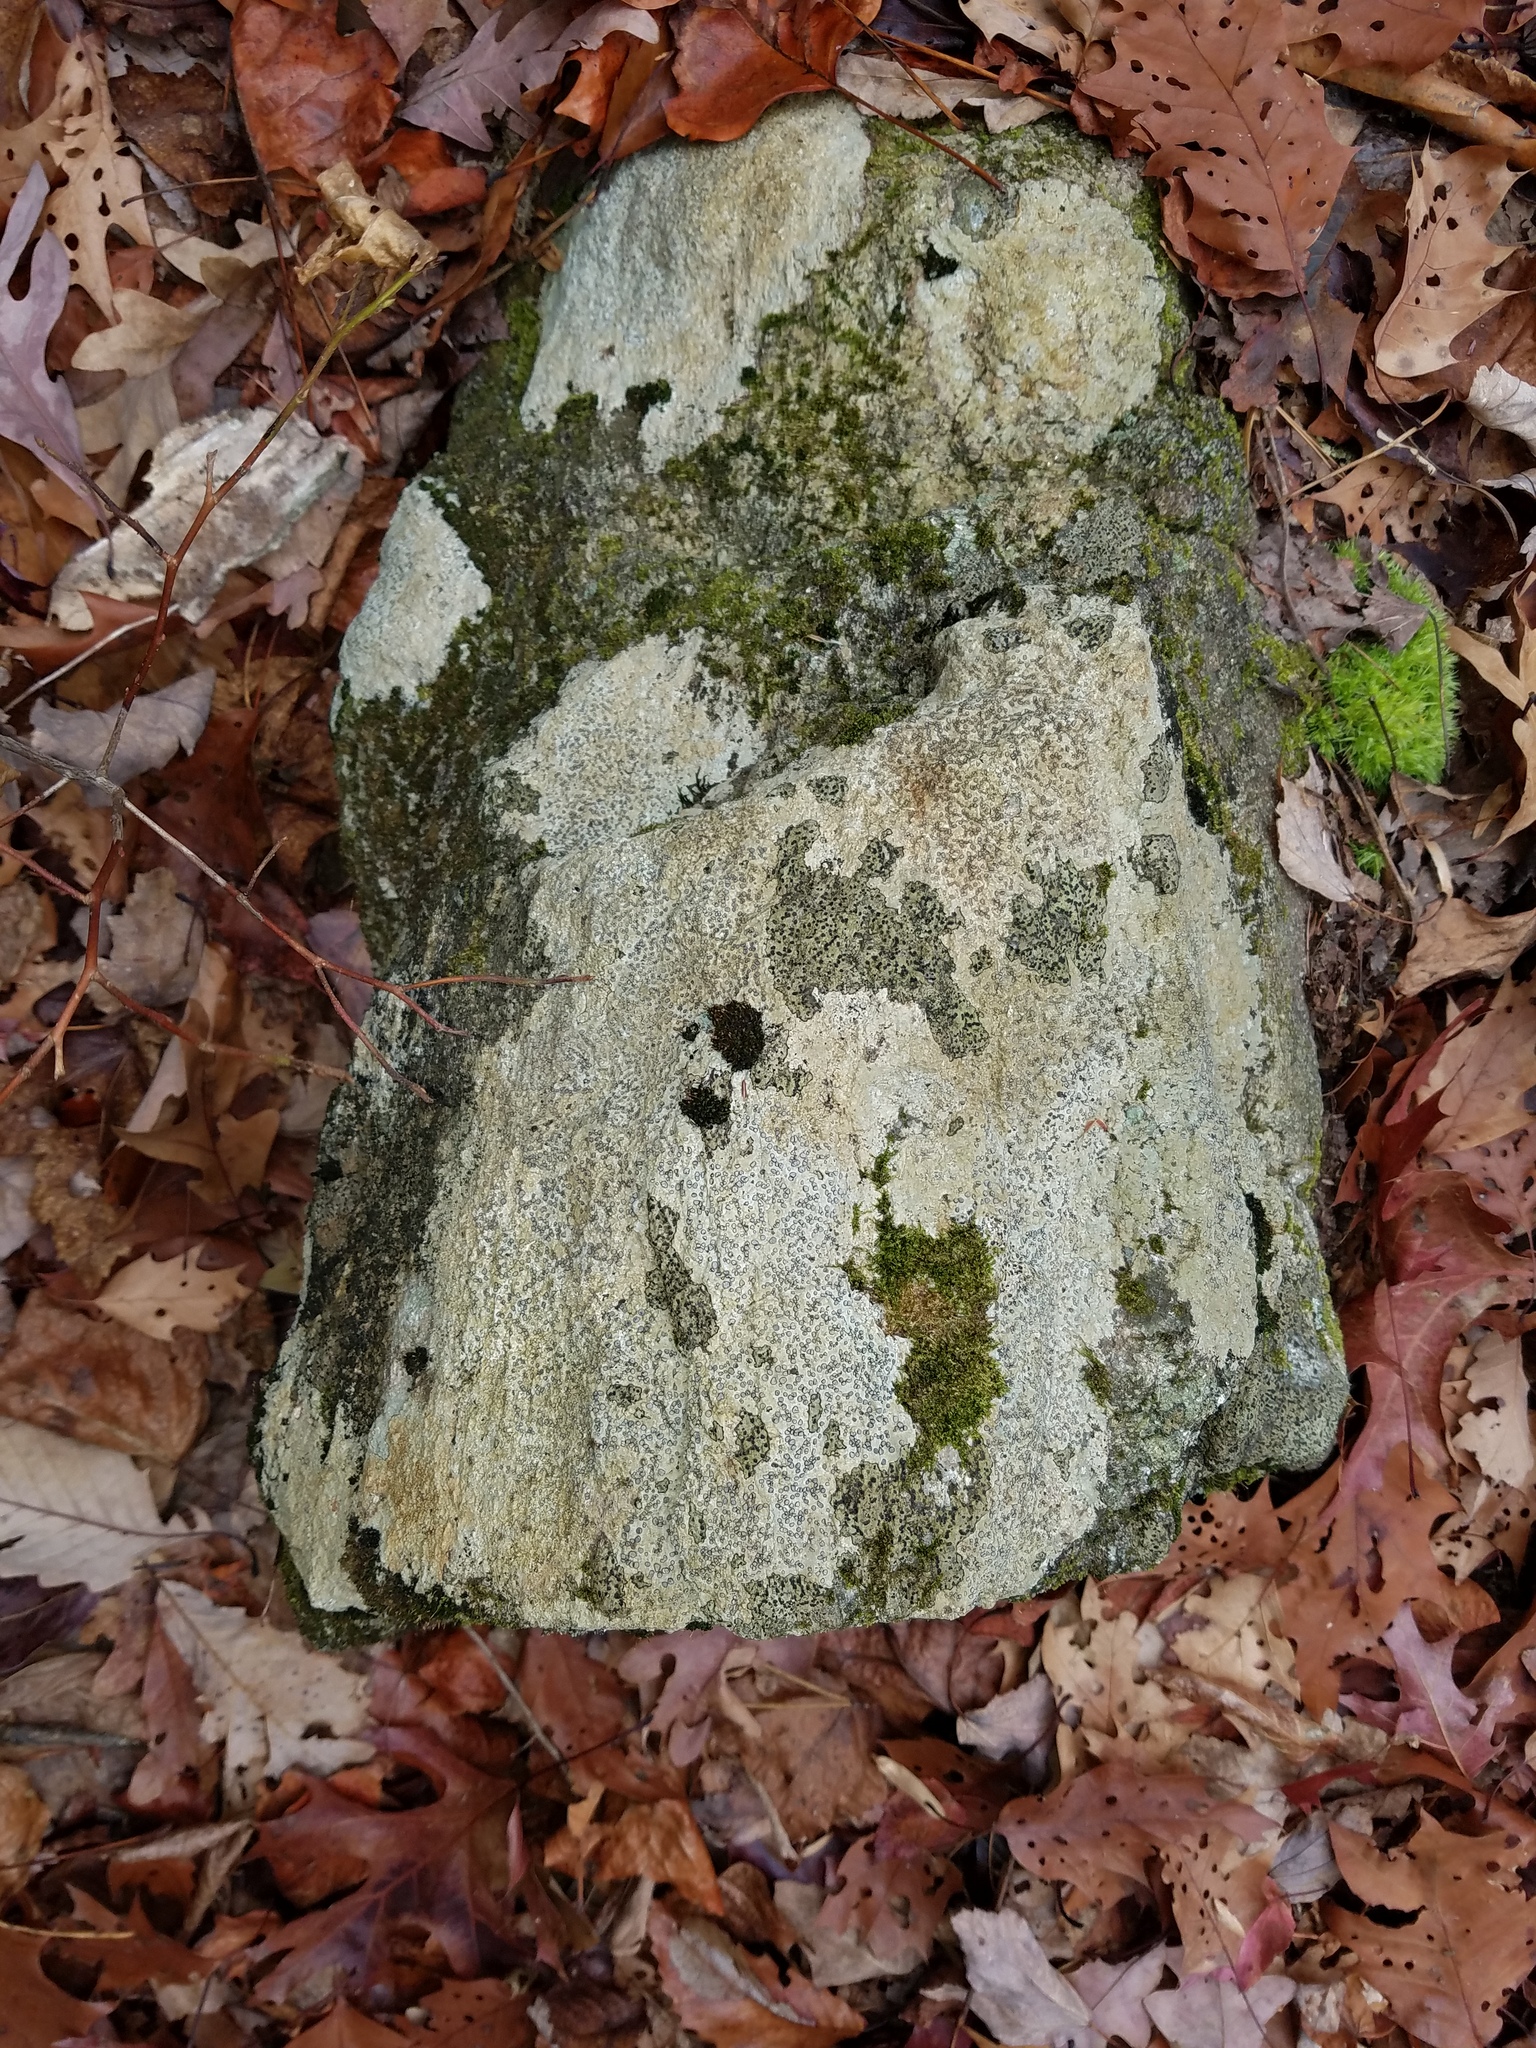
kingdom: Fungi
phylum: Ascomycota
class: Lecanoromycetes
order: Lecideales
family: Lecideaceae
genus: Porpidia
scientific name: Porpidia albocaerulescens
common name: Smokey-eyed boulder lichen
